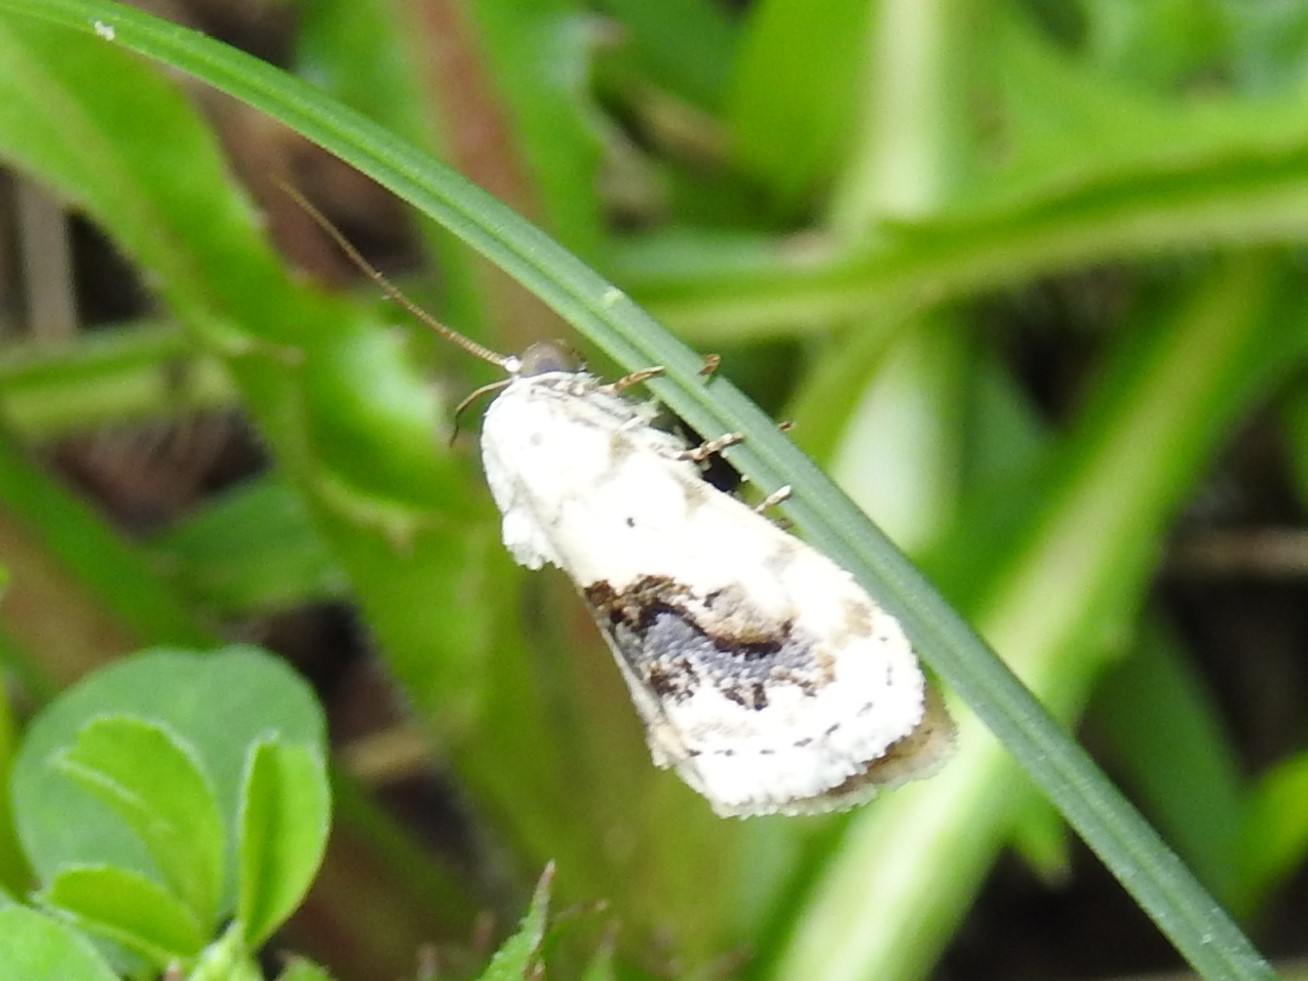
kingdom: Animalia
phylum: Arthropoda
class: Insecta
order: Lepidoptera
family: Noctuidae
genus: Acontia
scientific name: Acontia erastrioides
